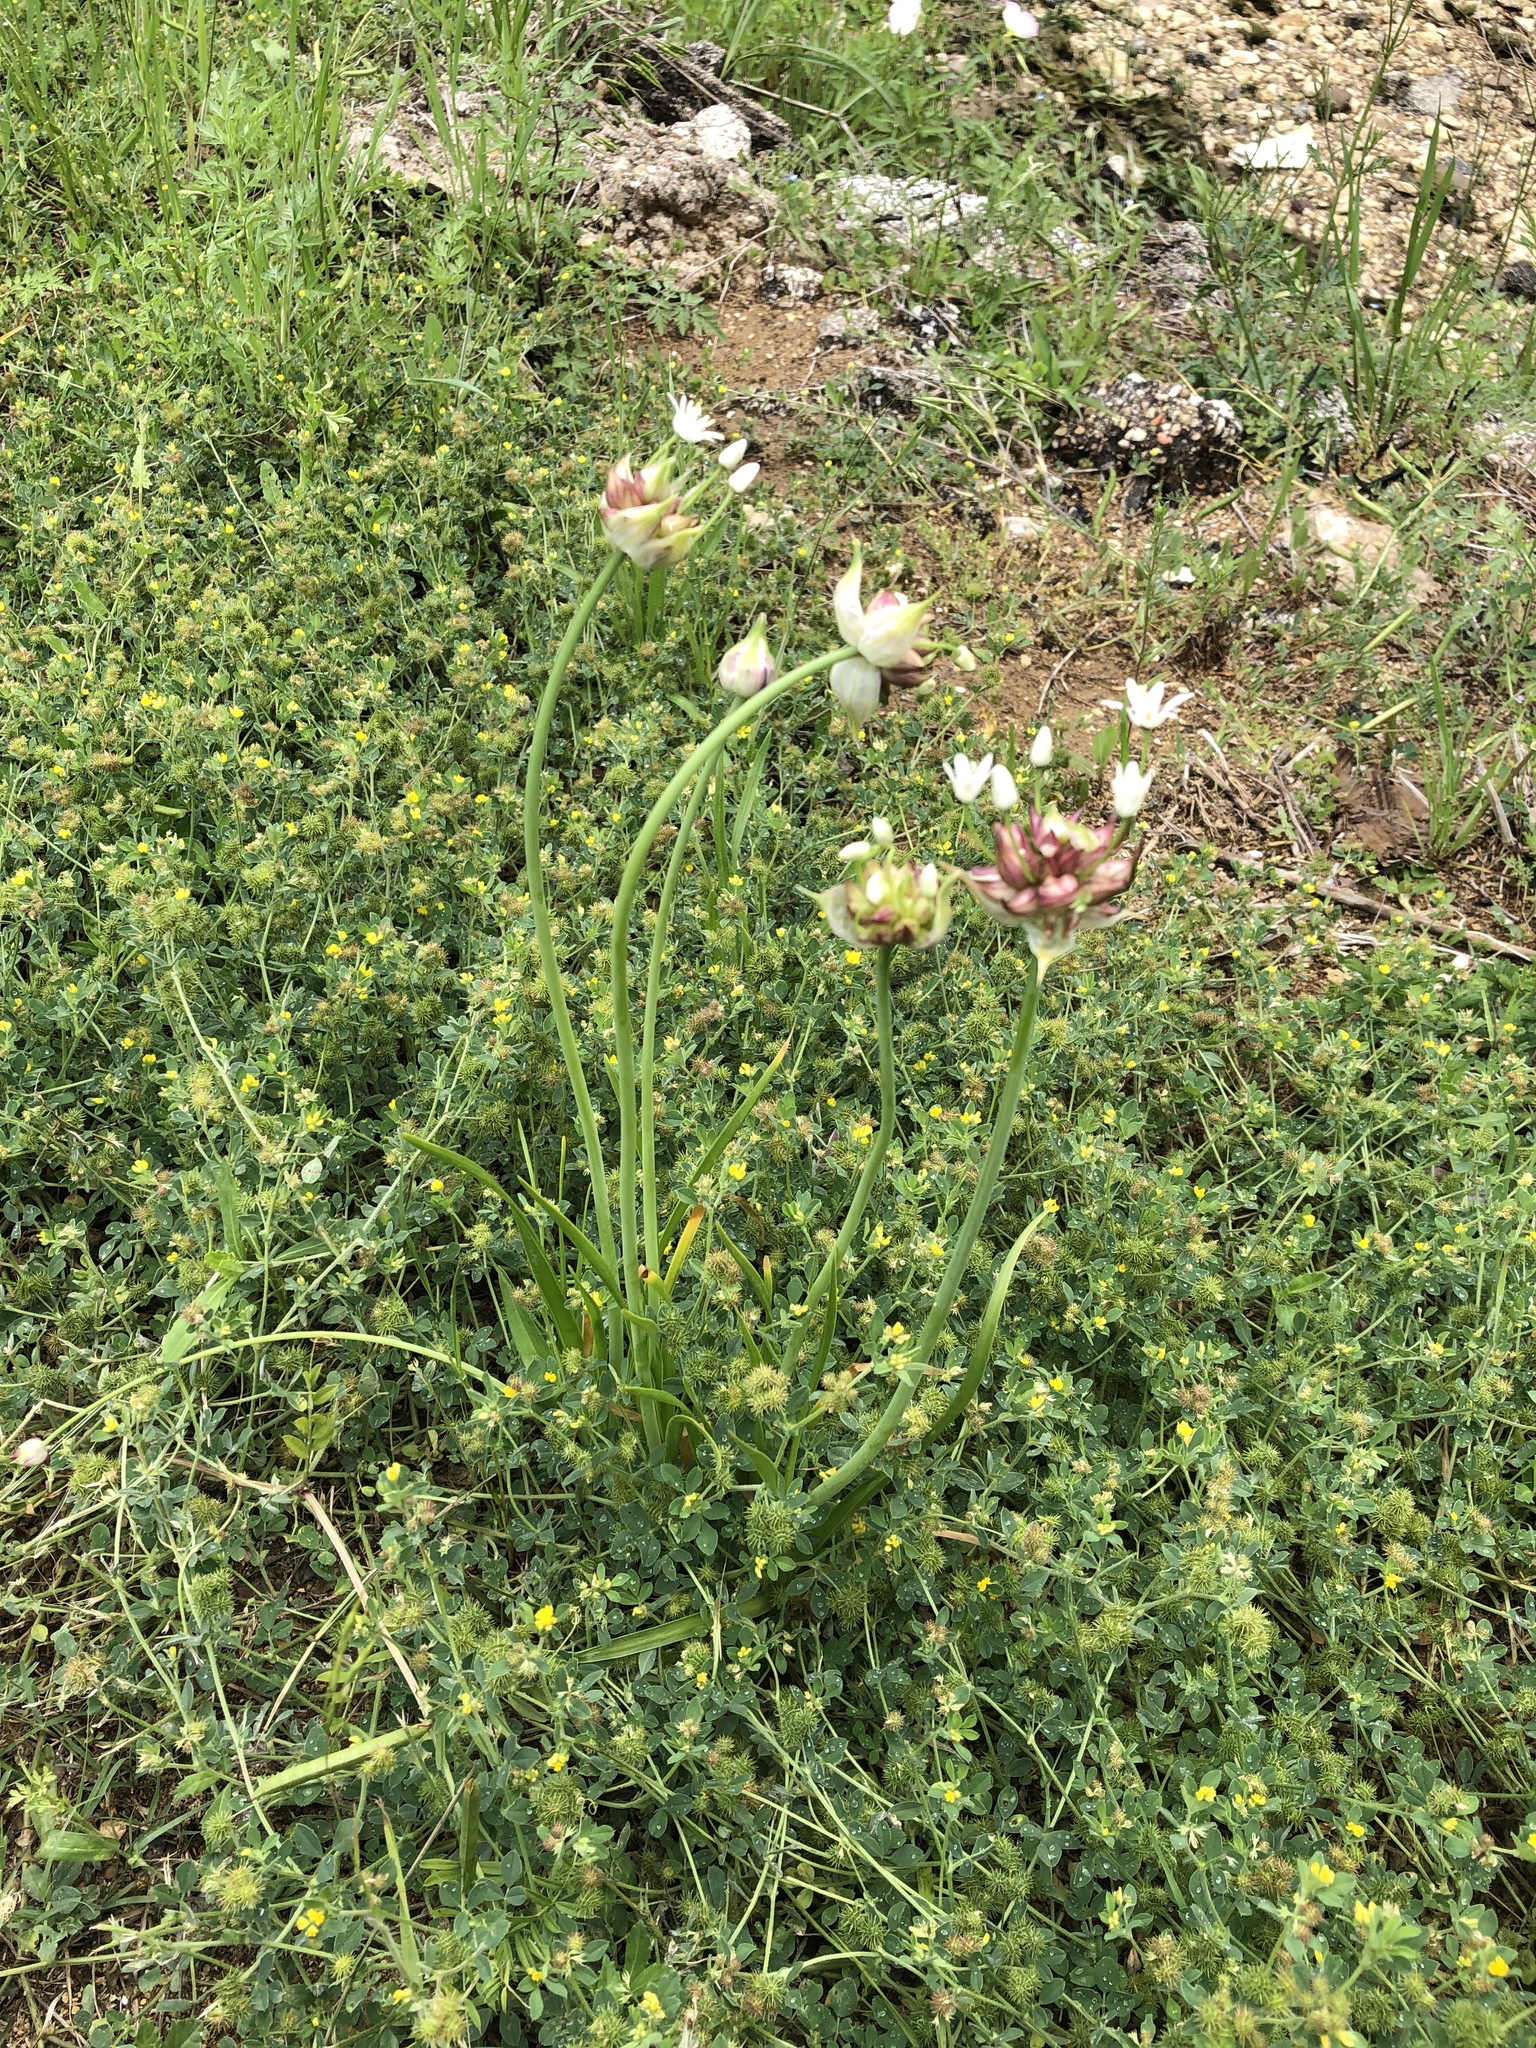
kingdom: Plantae
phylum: Tracheophyta
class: Liliopsida
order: Asparagales
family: Amaryllidaceae
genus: Allium
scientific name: Allium canadense
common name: Meadow garlic
